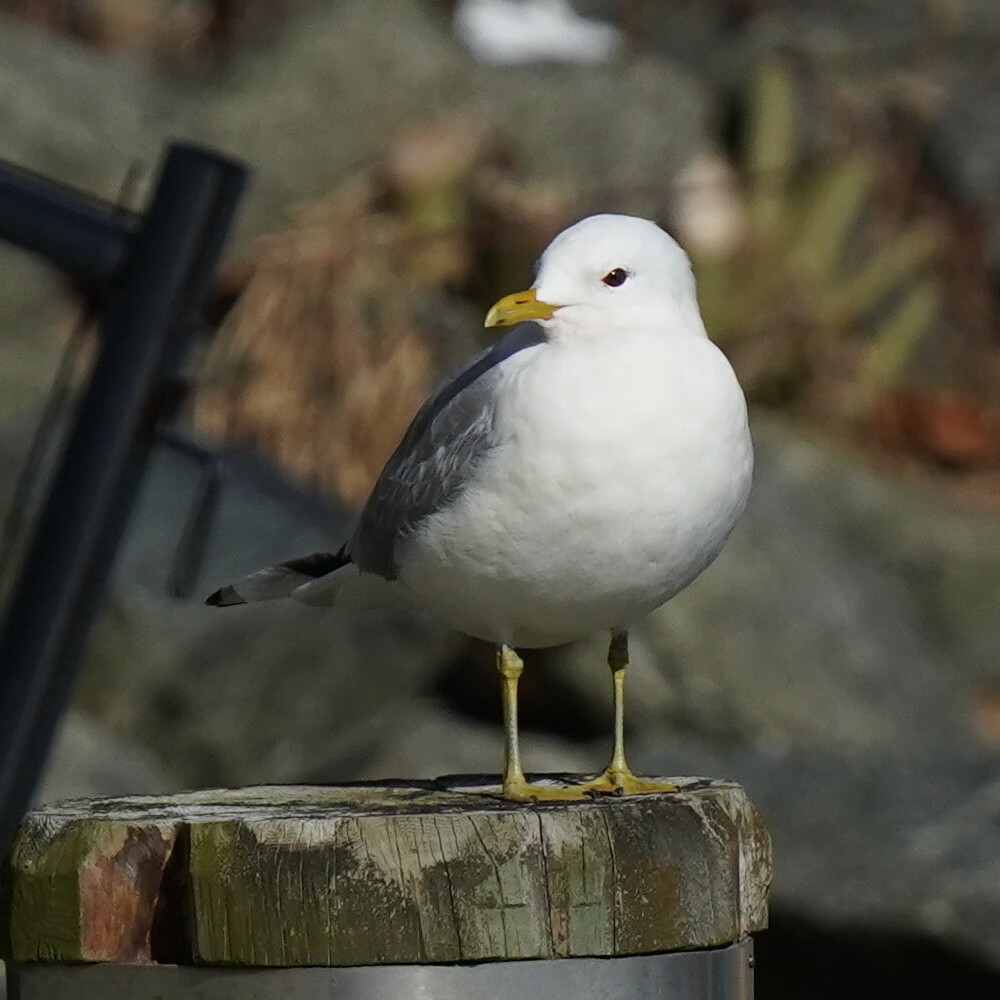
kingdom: Animalia
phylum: Chordata
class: Aves
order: Charadriiformes
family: Laridae
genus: Larus
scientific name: Larus canus
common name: Mew gull
